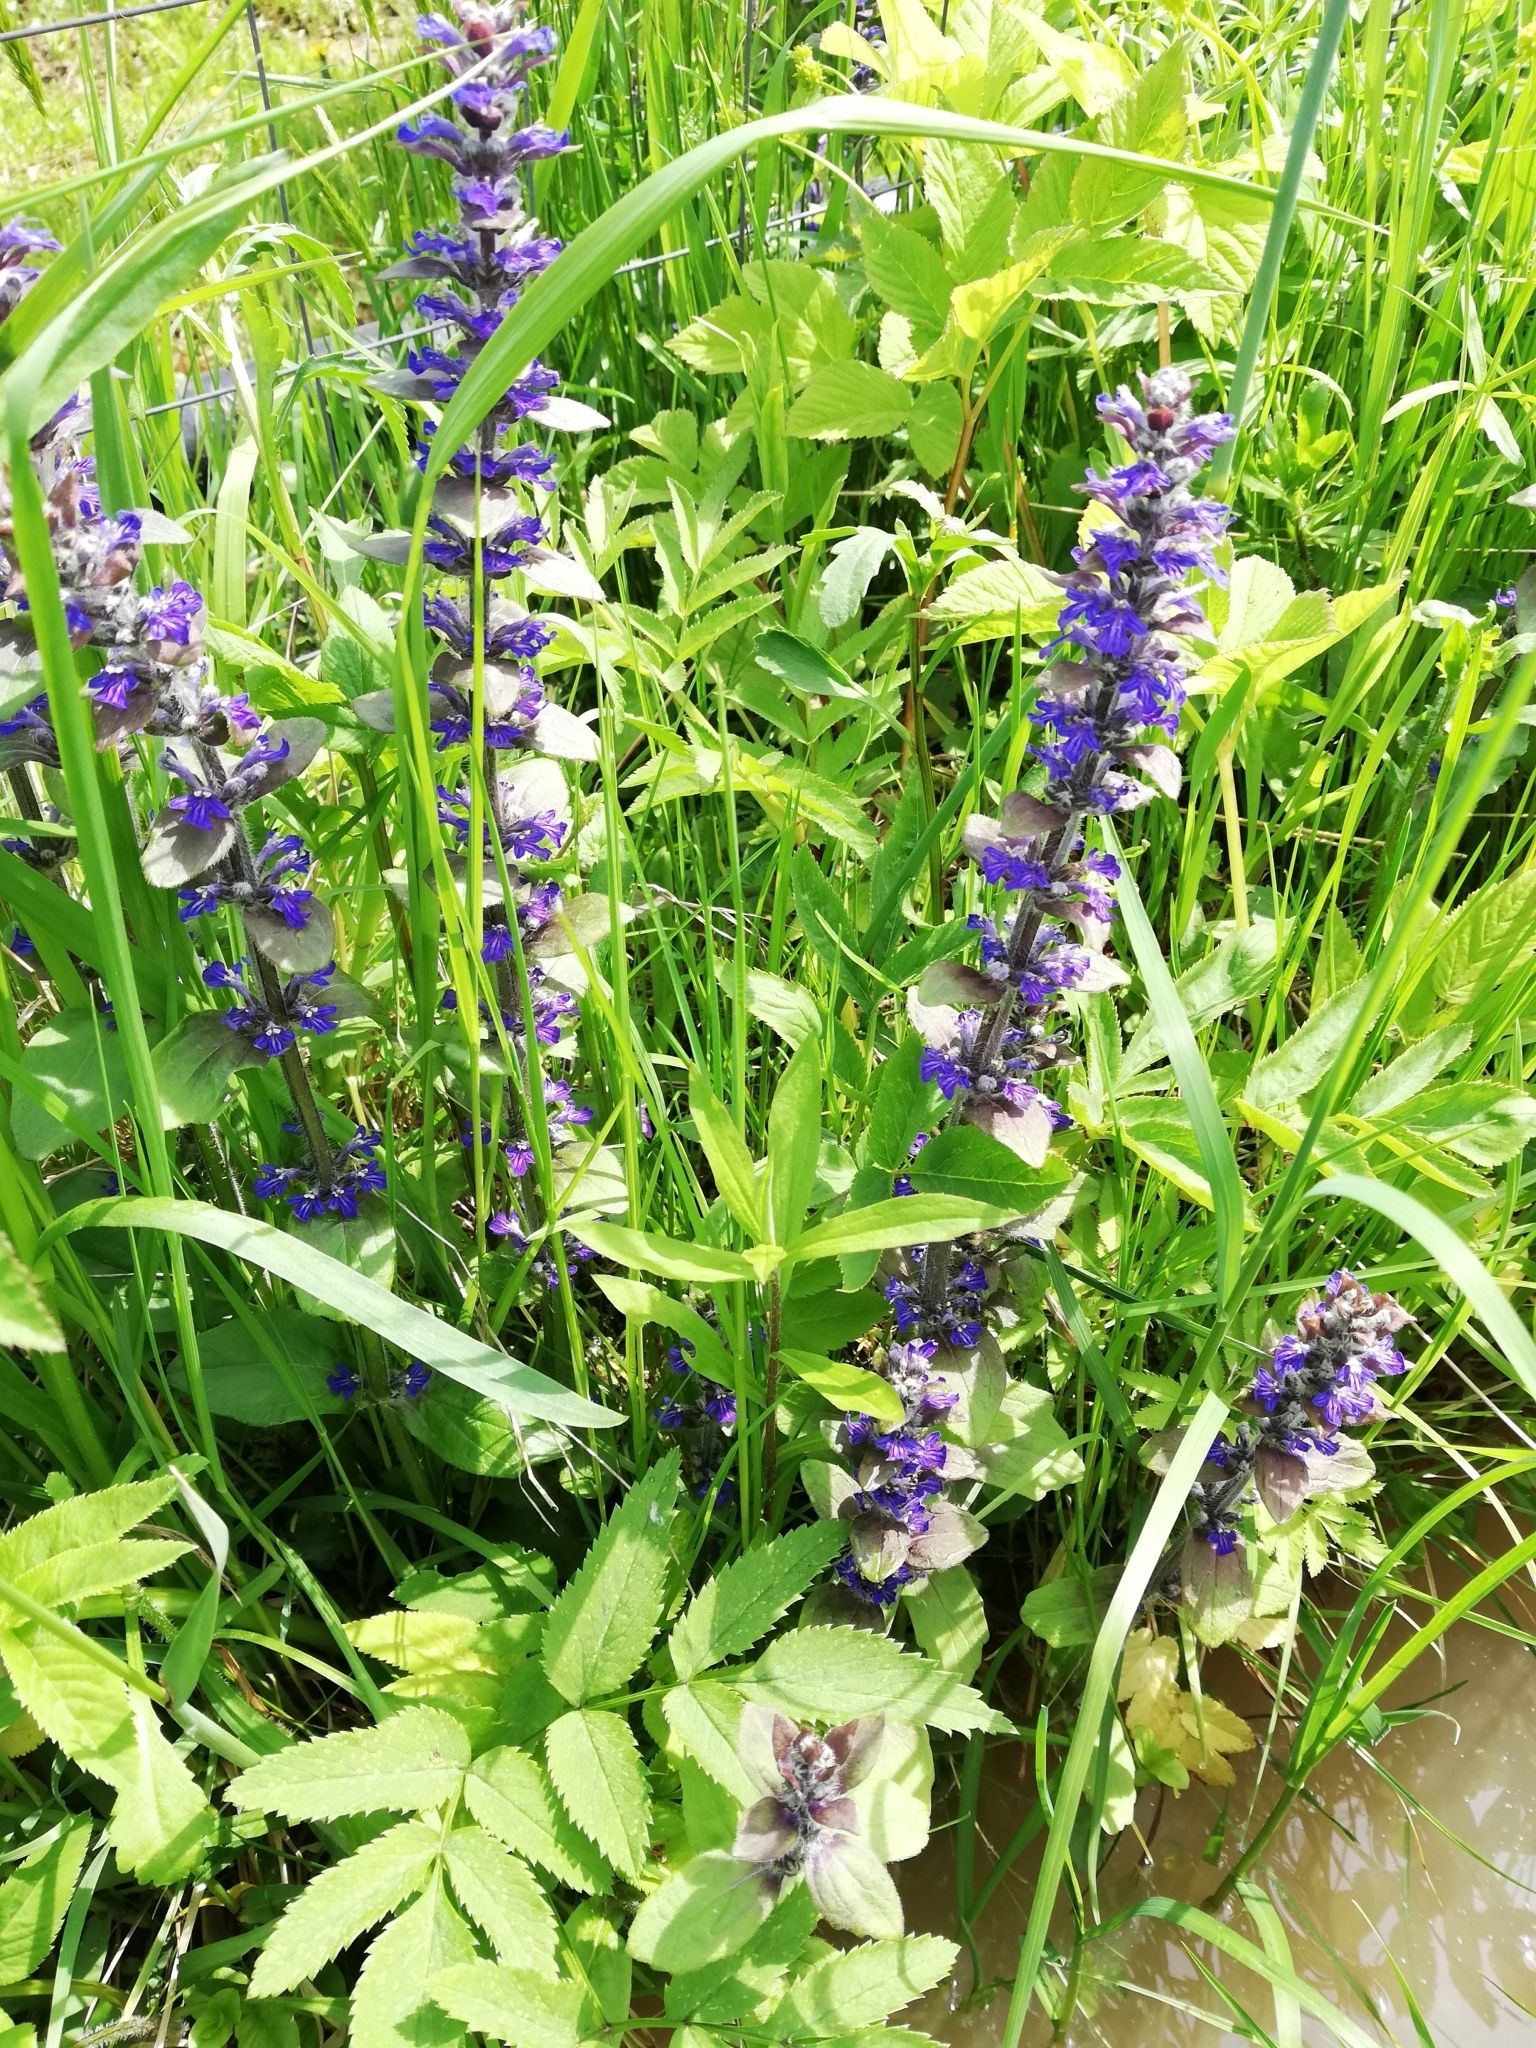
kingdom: Plantae
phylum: Tracheophyta
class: Magnoliopsida
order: Lamiales
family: Lamiaceae
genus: Ajuga
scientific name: Ajuga reptans
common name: Bugle
